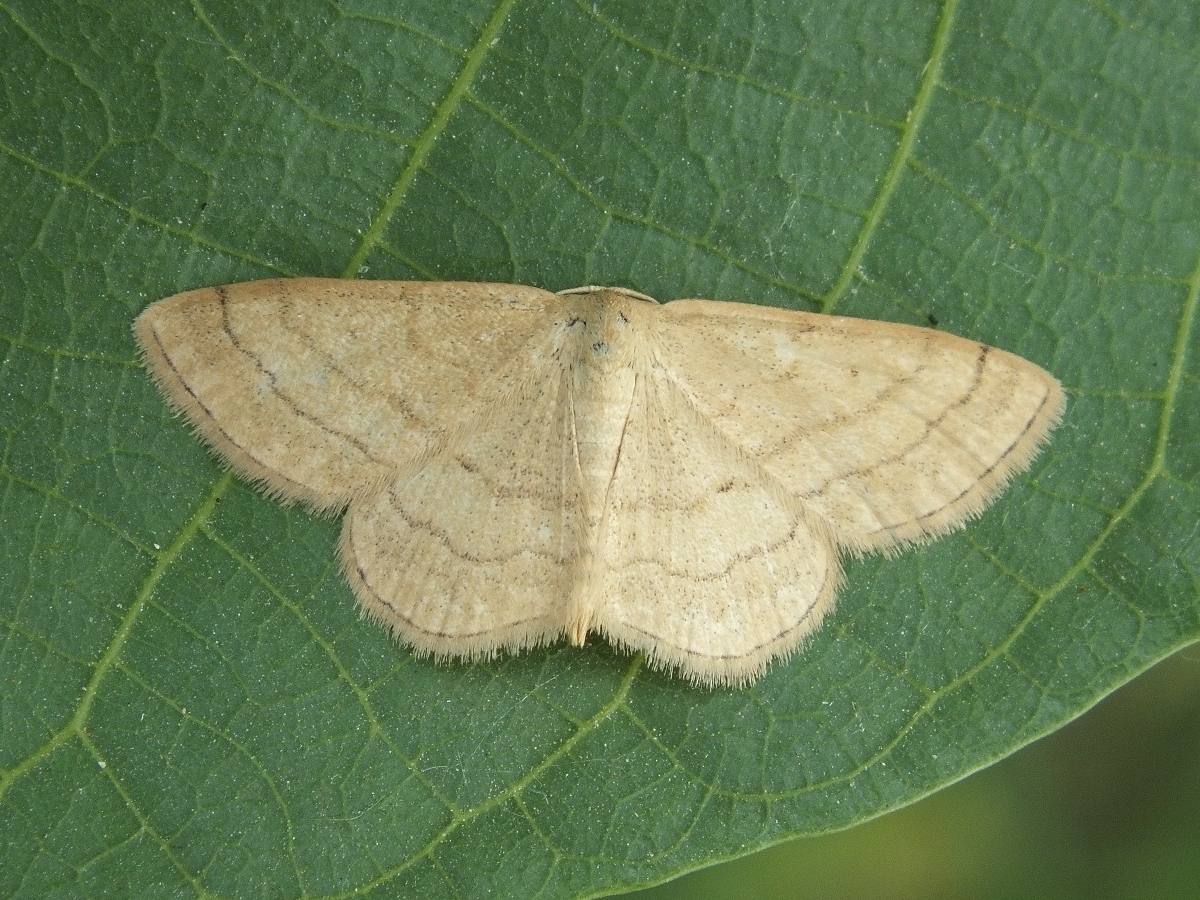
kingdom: Animalia
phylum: Arthropoda
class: Insecta
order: Lepidoptera
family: Geometridae
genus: Scopula
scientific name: Scopula rubiginata
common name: Tawny wave
